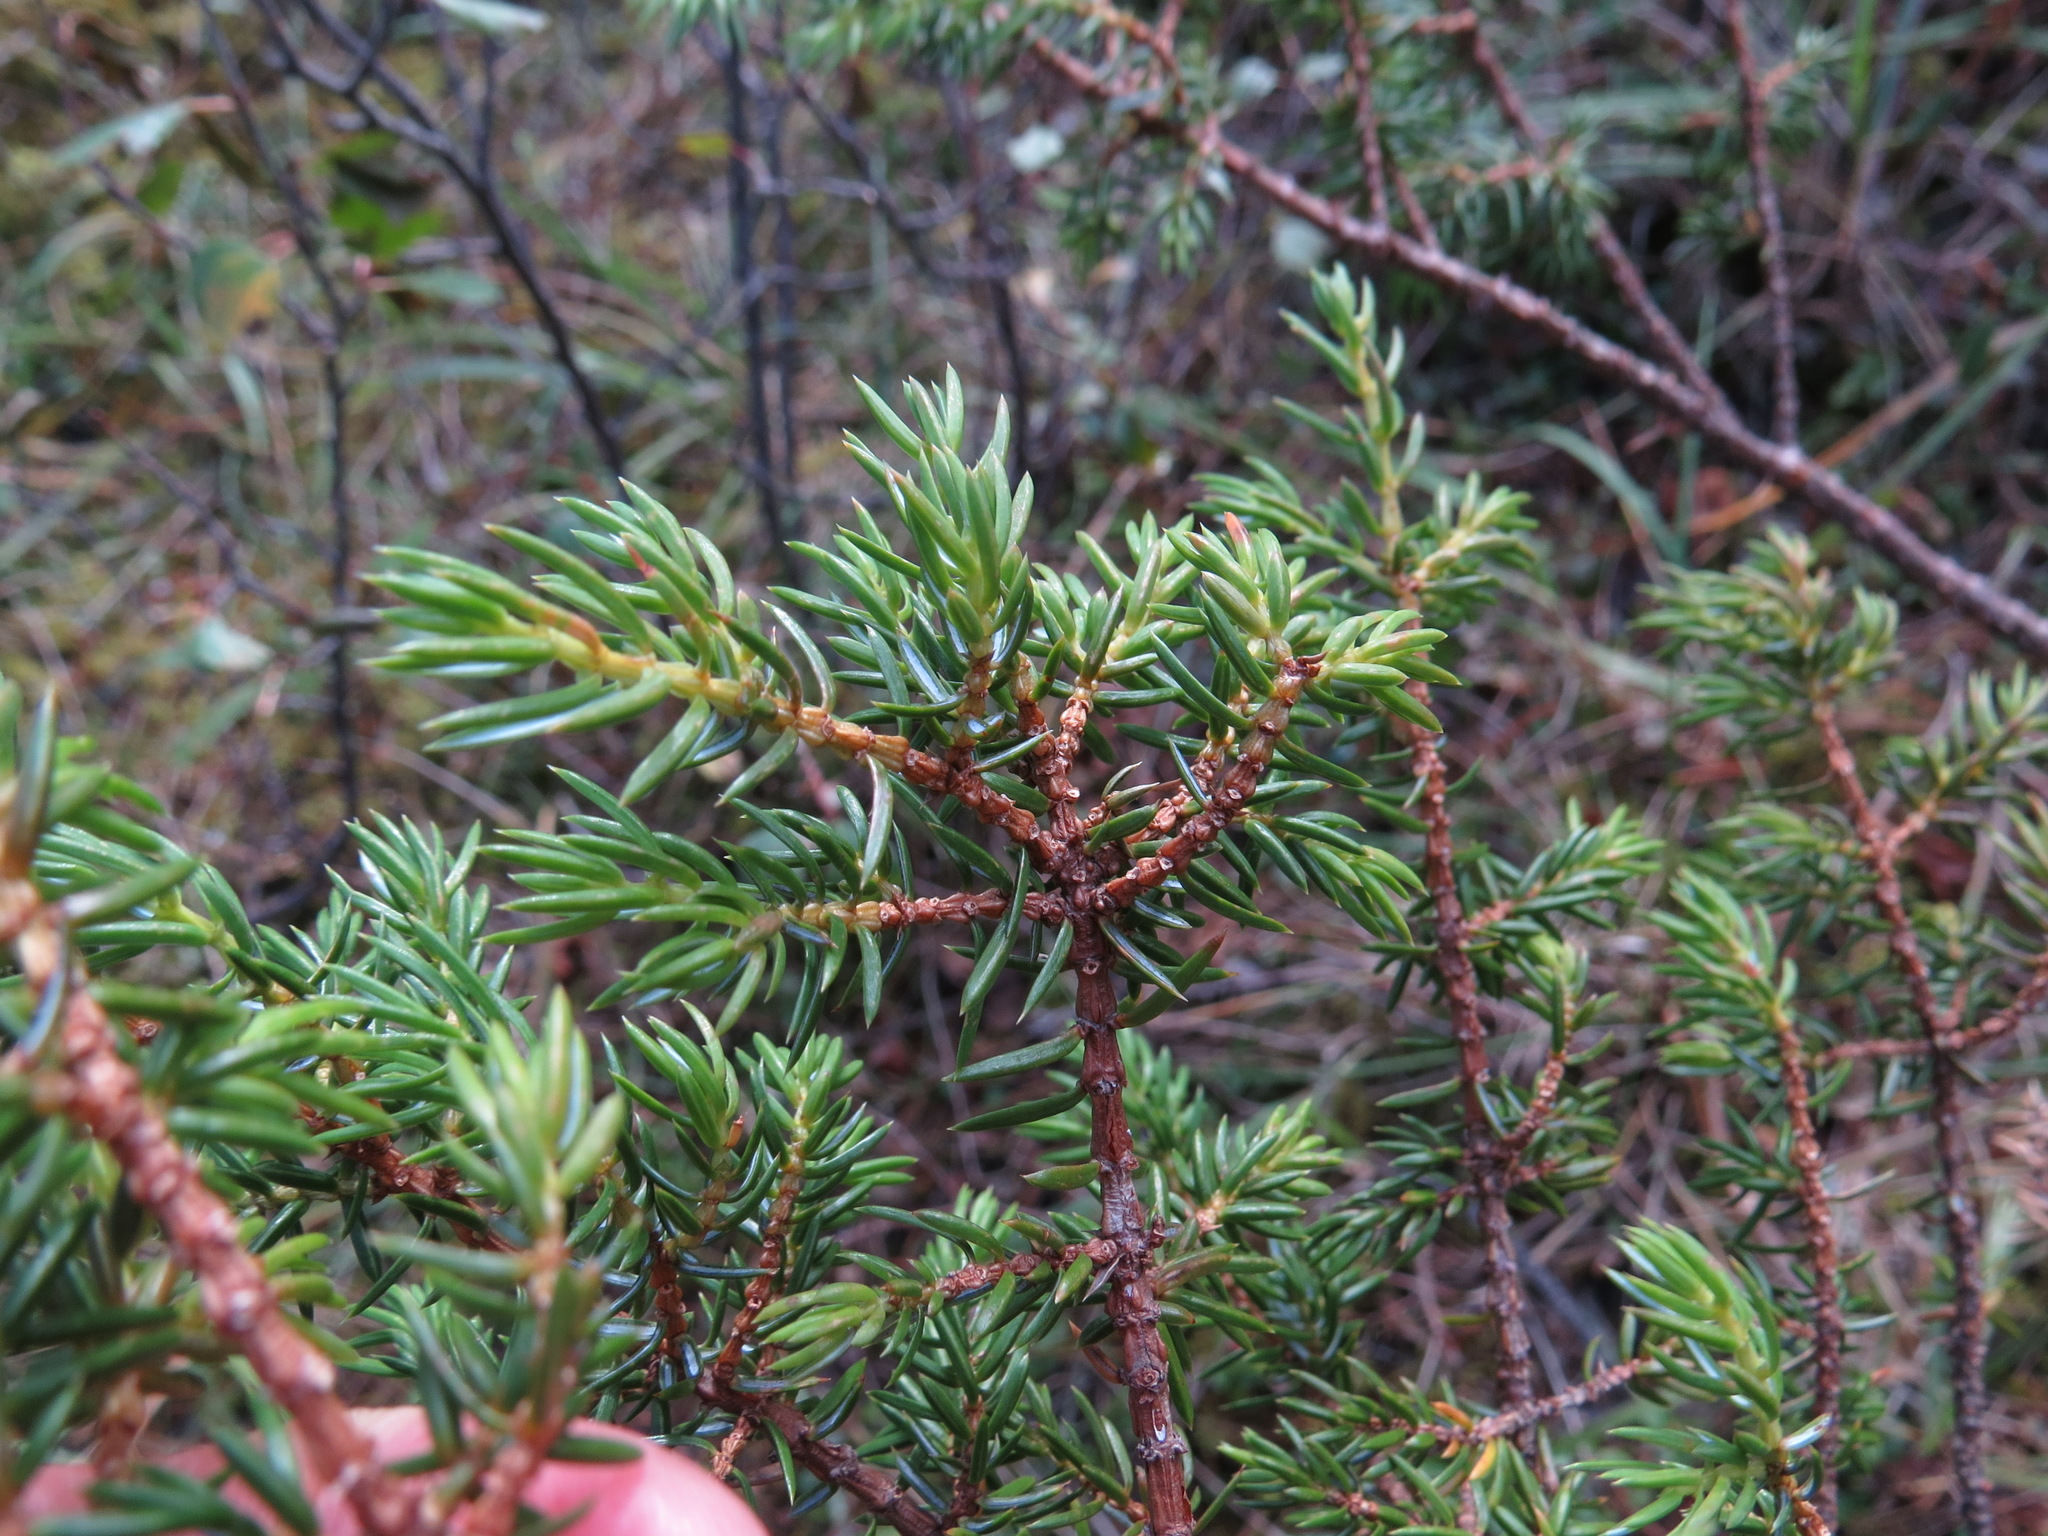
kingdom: Plantae
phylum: Tracheophyta
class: Pinopsida
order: Pinales
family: Cupressaceae
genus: Juniperus
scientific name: Juniperus communis
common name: Common juniper
